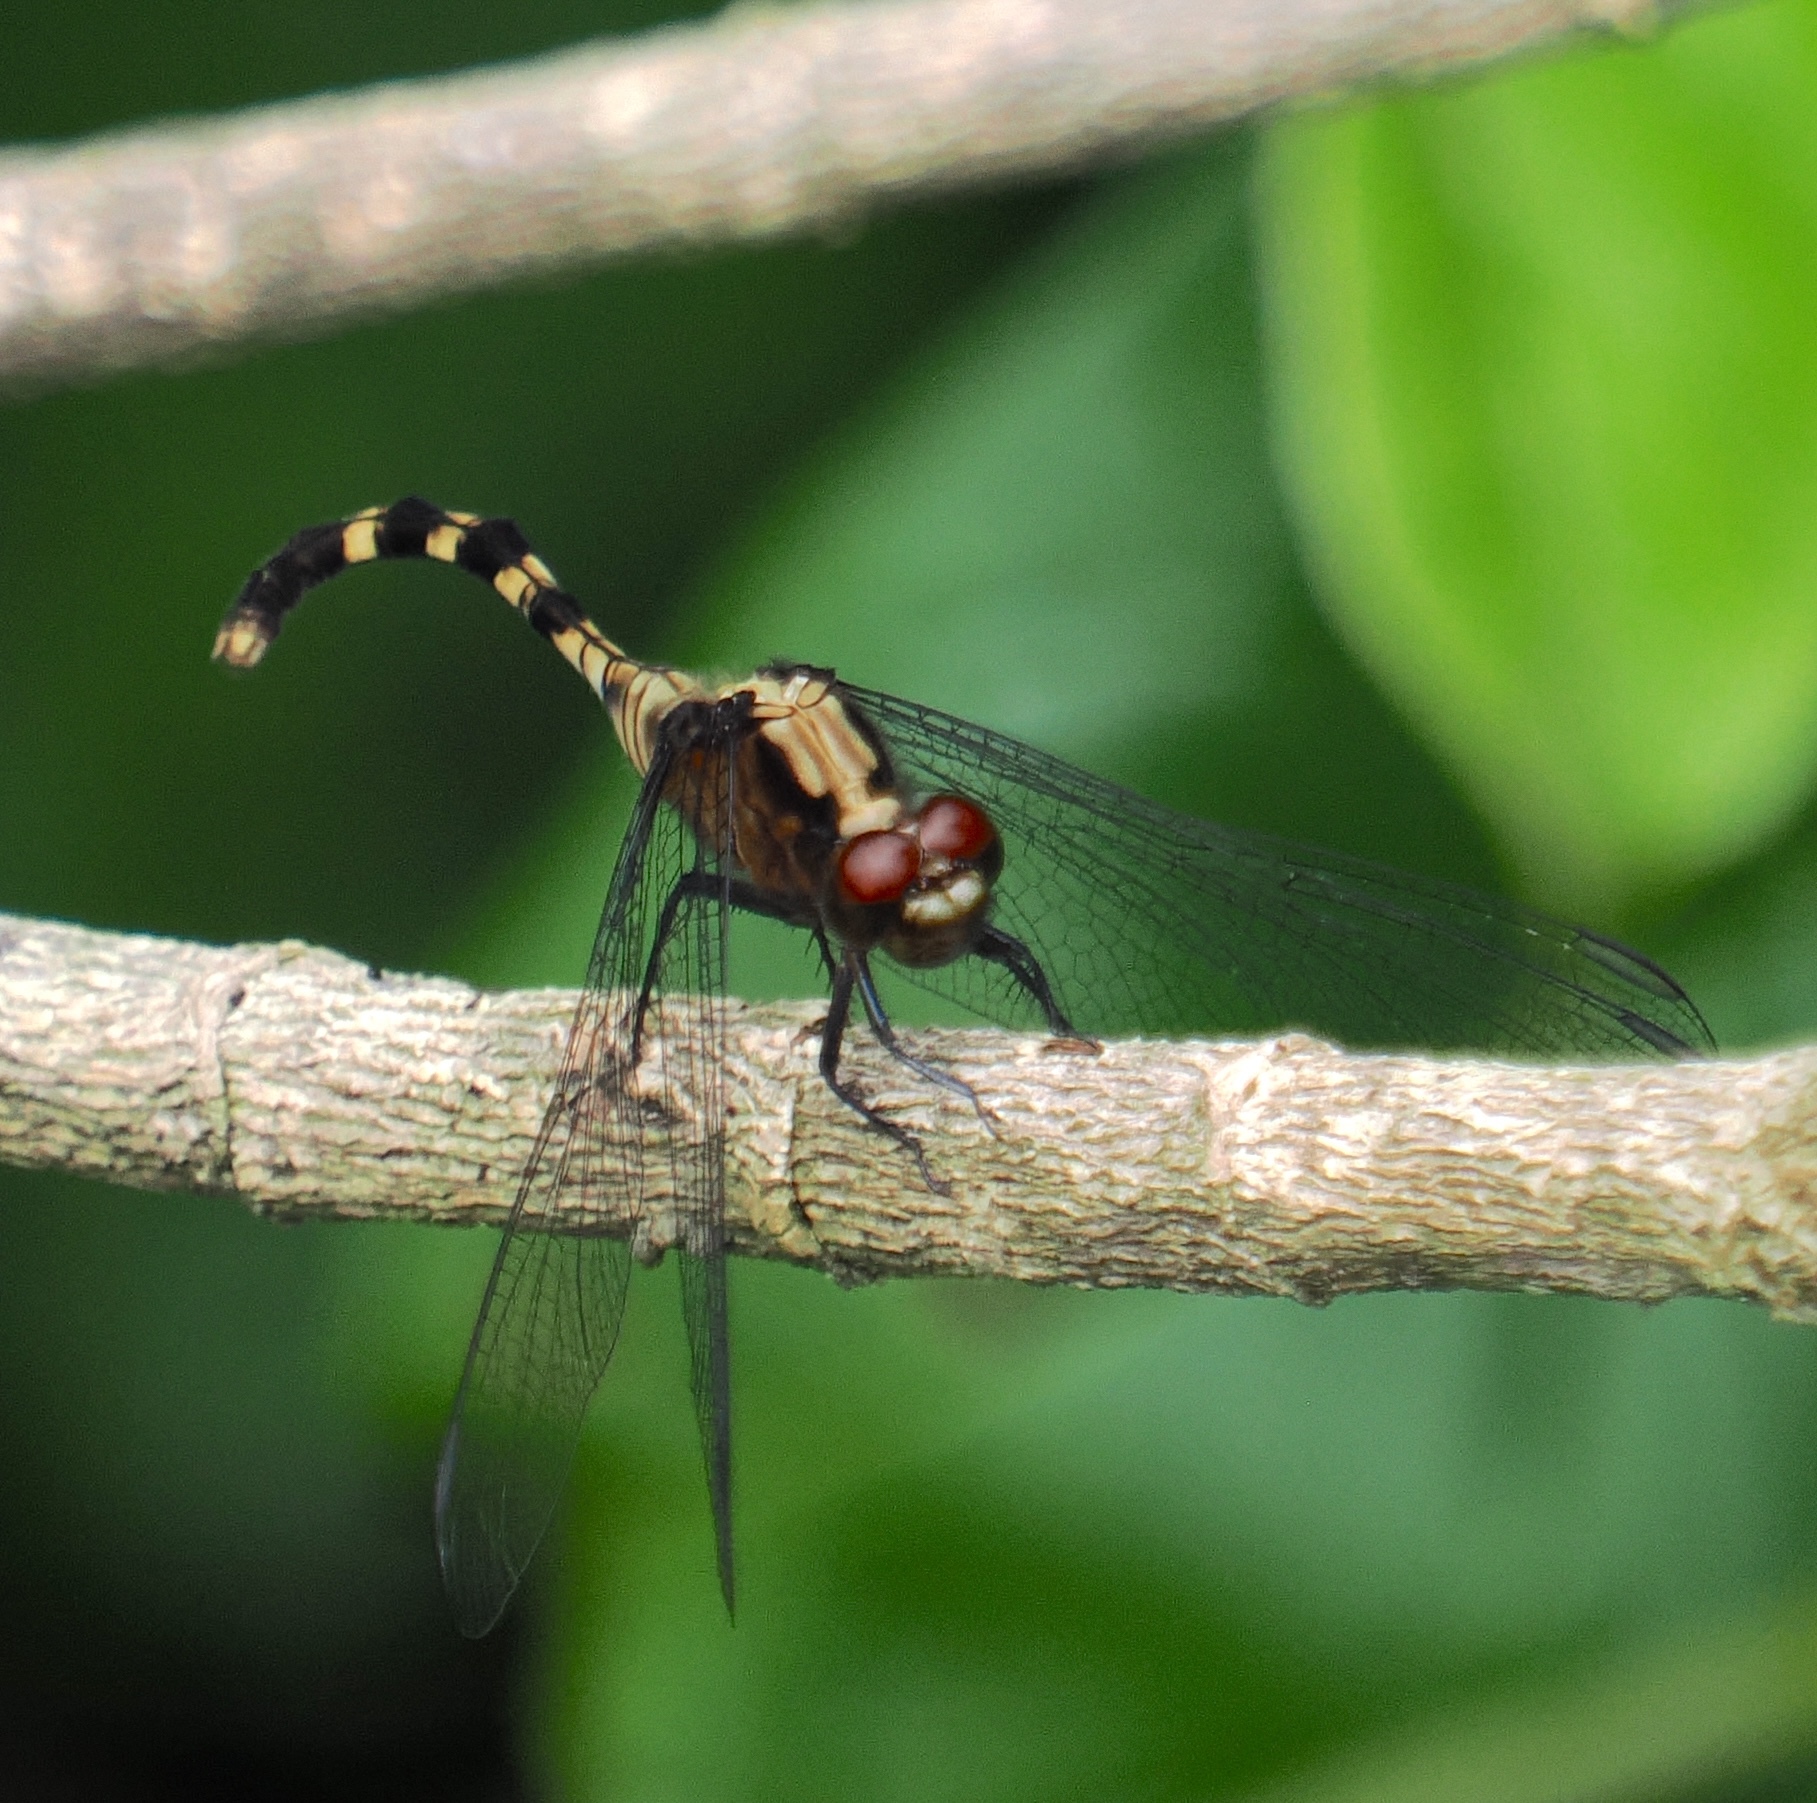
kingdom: Animalia
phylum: Arthropoda
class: Insecta
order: Odonata
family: Libellulidae
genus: Erythemis
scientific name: Erythemis plebeja
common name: Pin-tailed pondhawk
